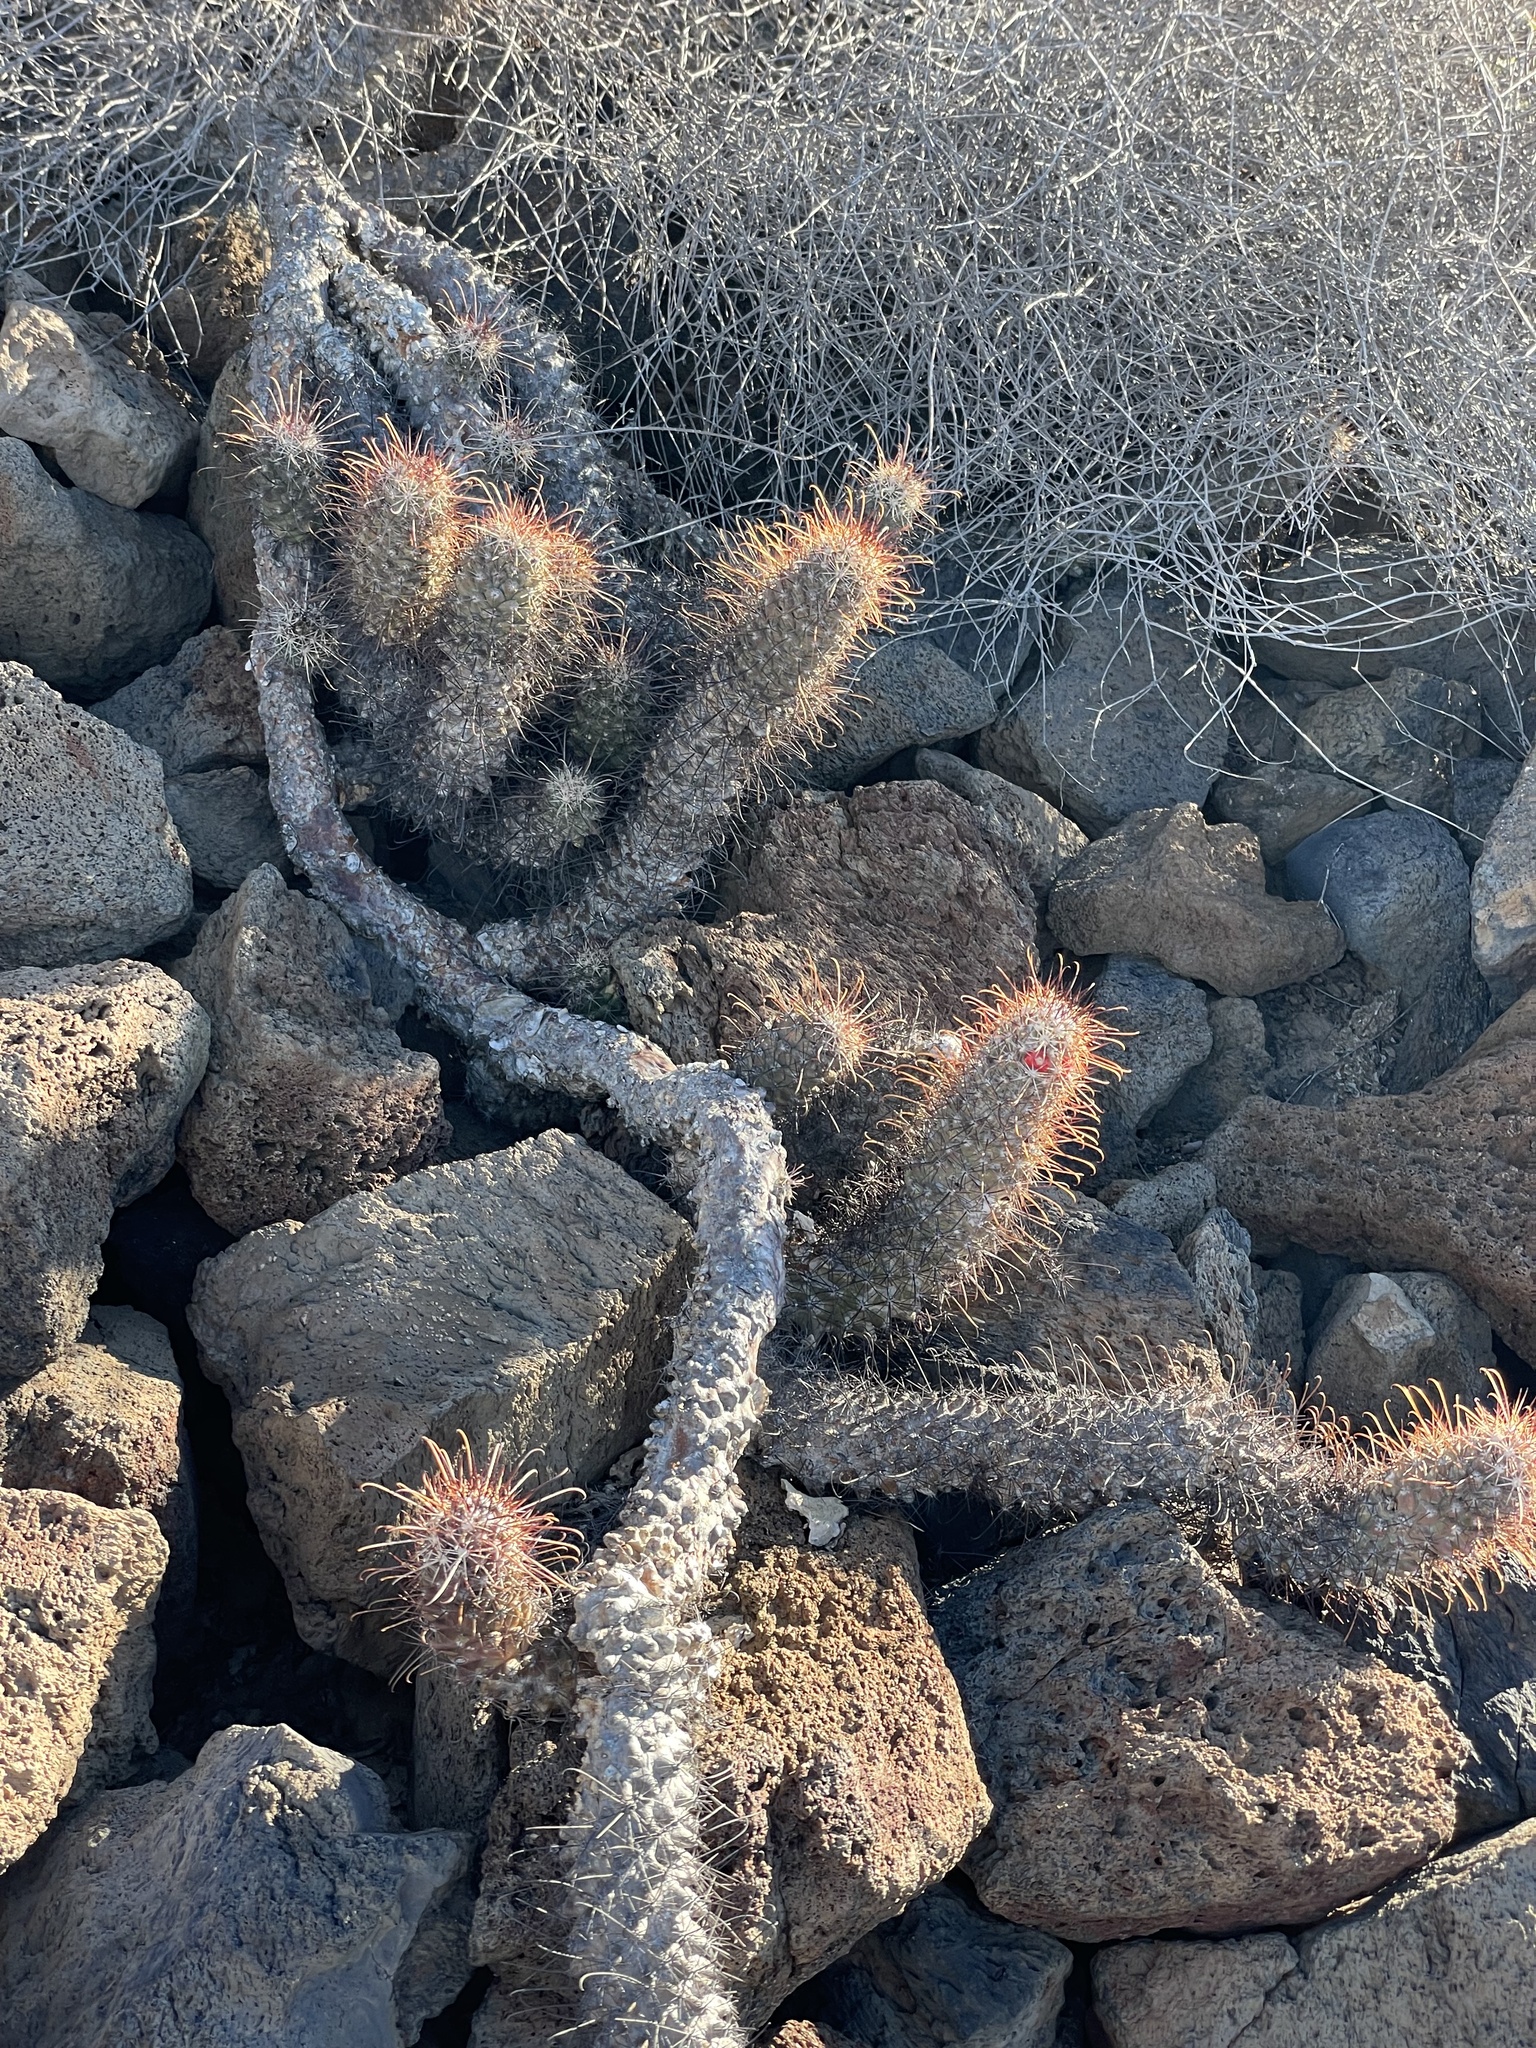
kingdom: Plantae
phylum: Tracheophyta
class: Magnoliopsida
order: Caryophyllales
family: Cactaceae
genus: Cochemiea
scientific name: Cochemiea poselgeri
